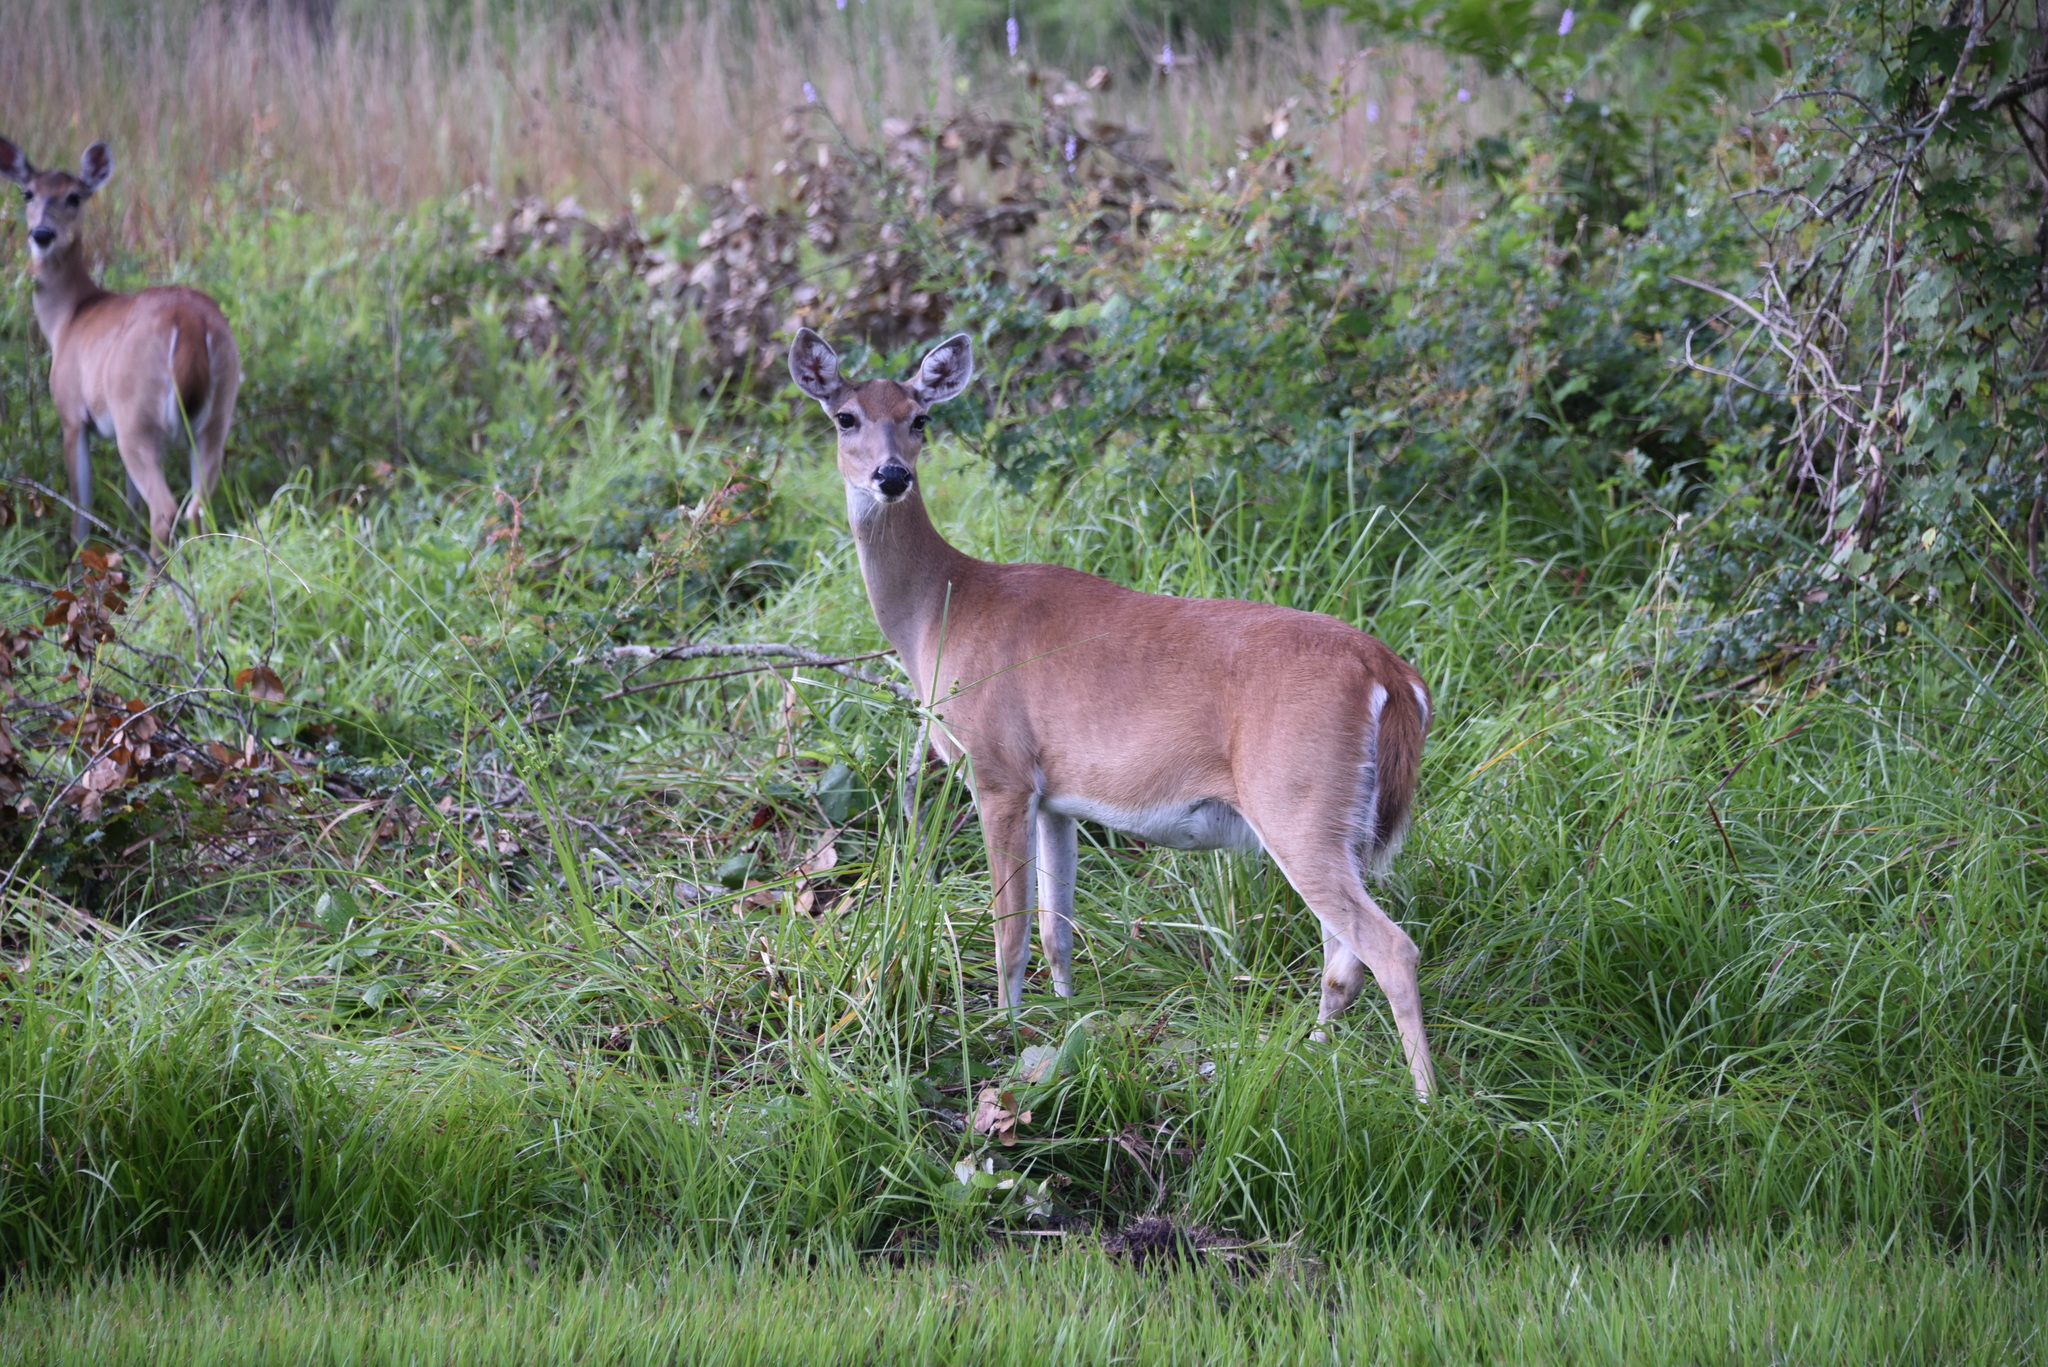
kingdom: Animalia
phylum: Chordata
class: Mammalia
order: Artiodactyla
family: Cervidae
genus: Odocoileus
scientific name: Odocoileus virginianus
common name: White-tailed deer
